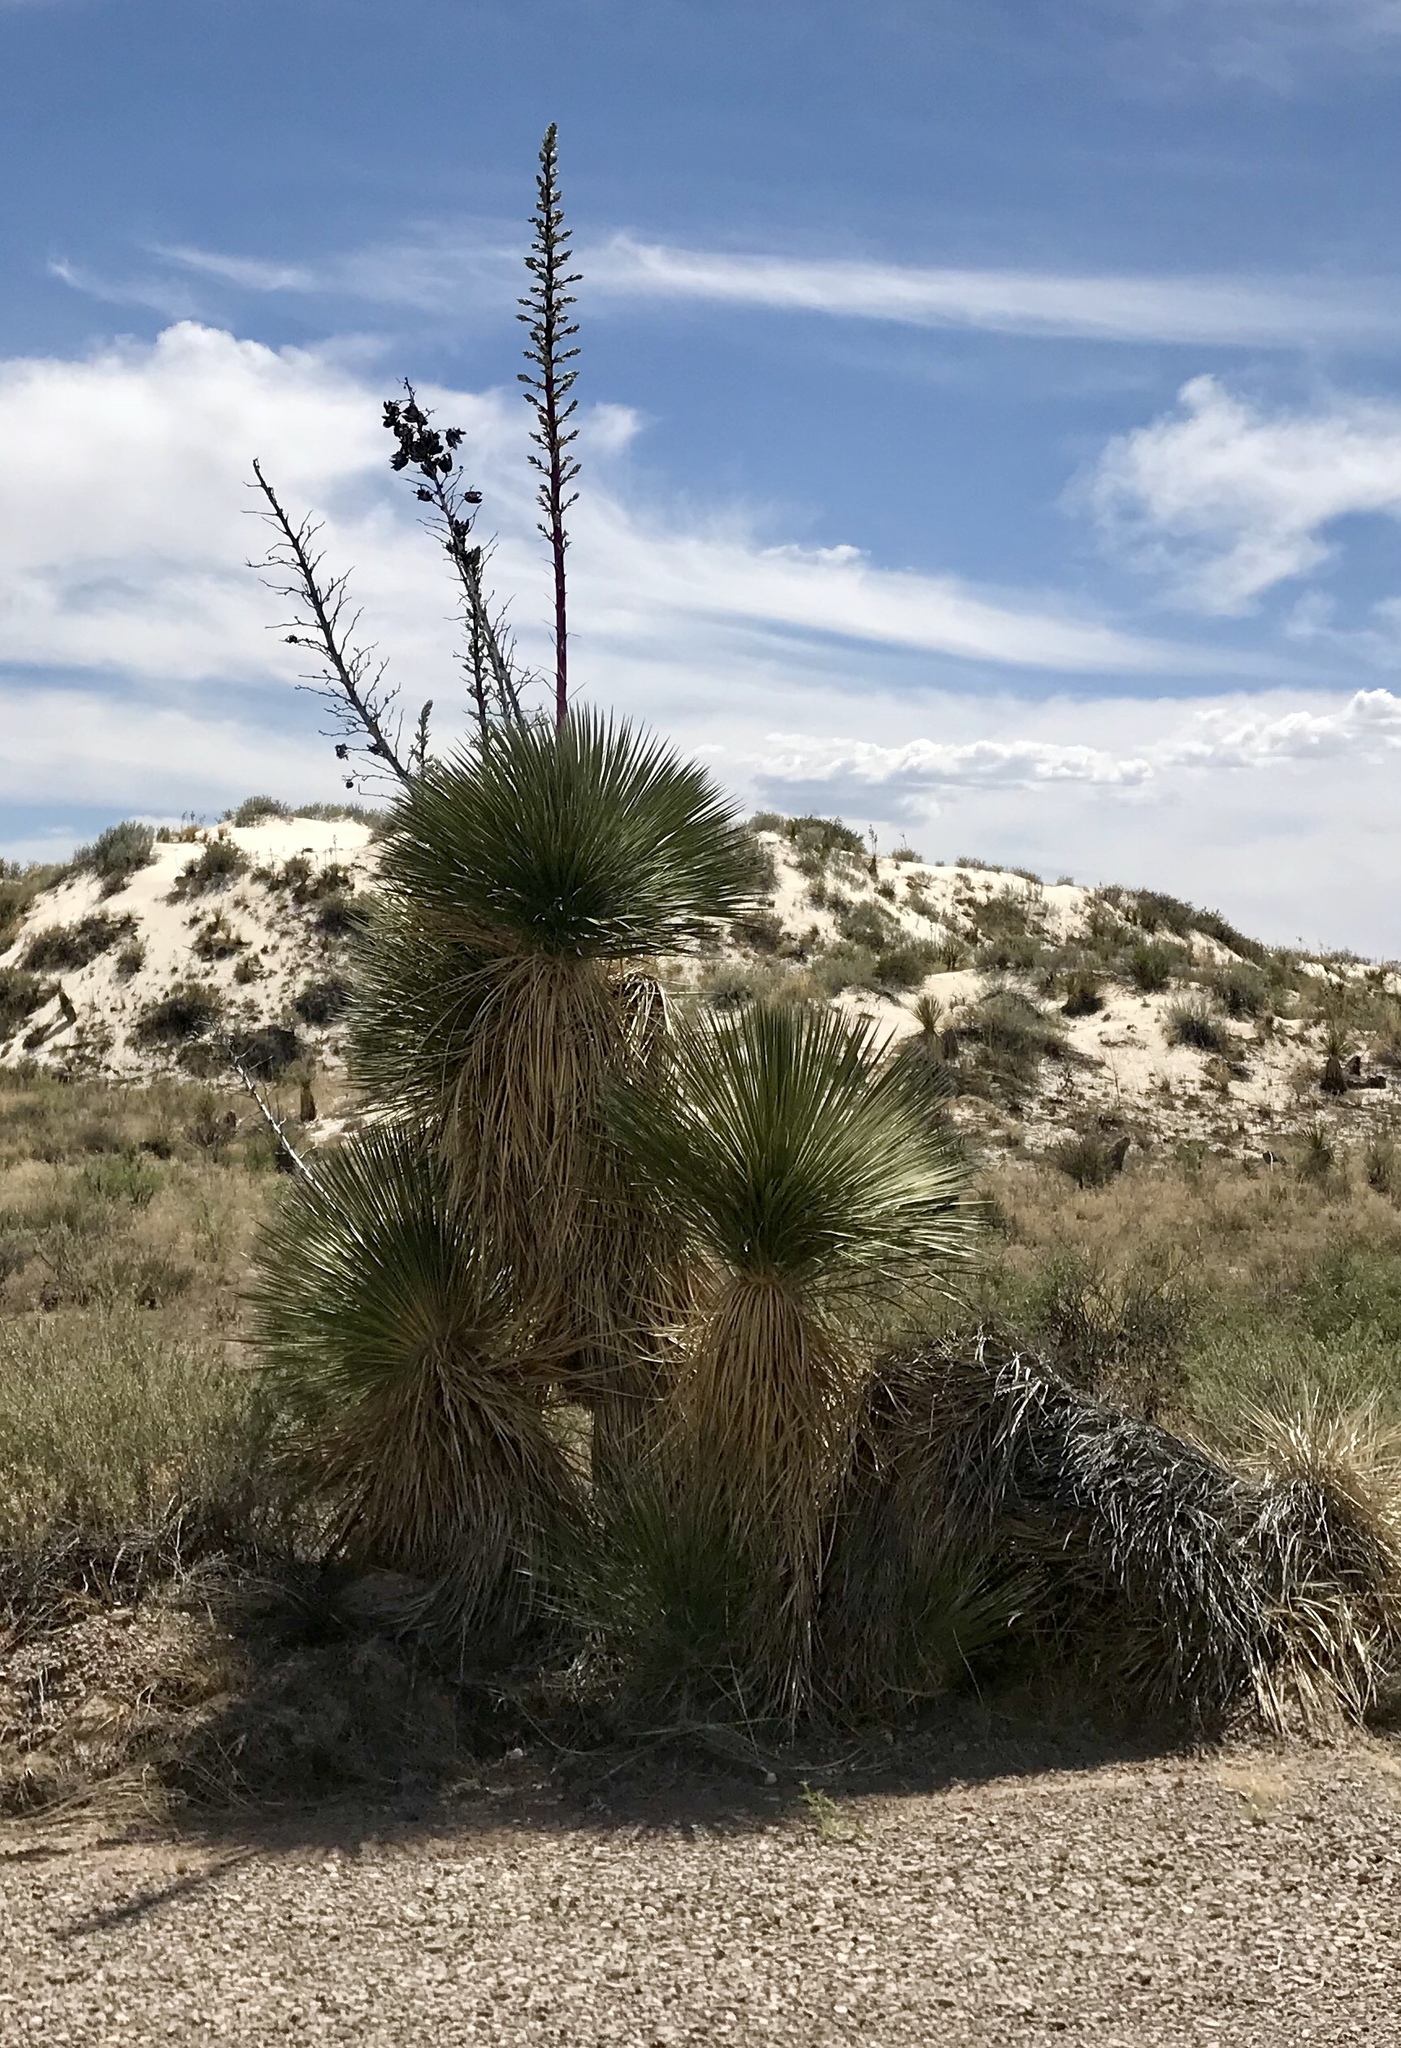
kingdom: Plantae
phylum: Tracheophyta
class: Liliopsida
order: Asparagales
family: Asparagaceae
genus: Yucca
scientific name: Yucca elata
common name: Palmella
